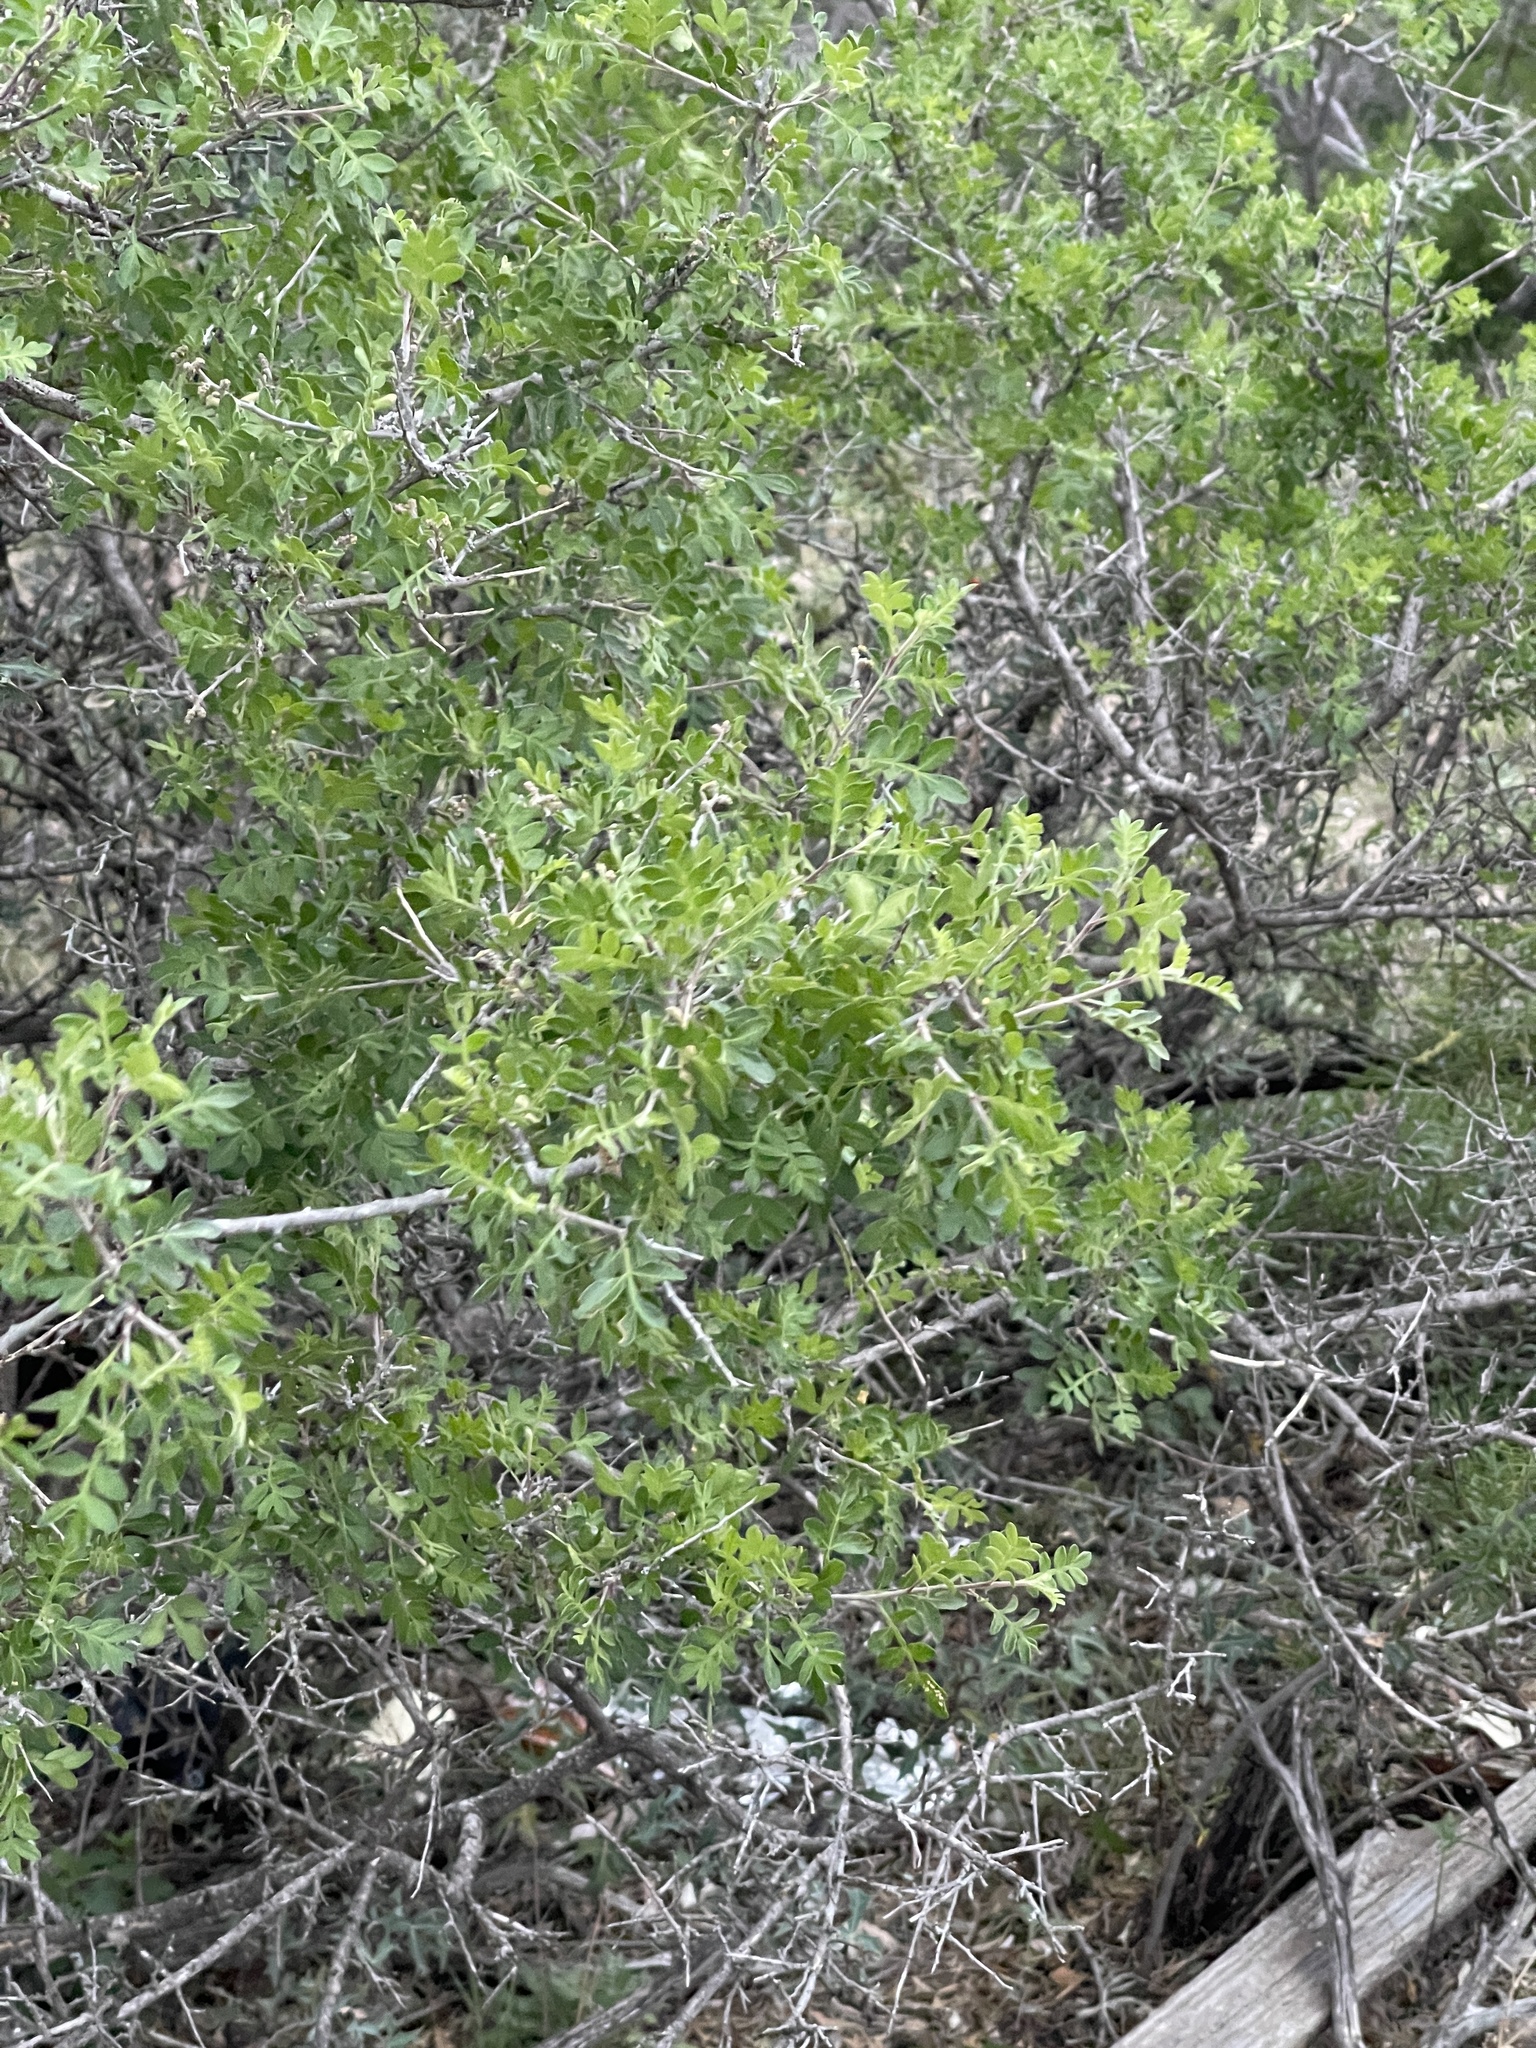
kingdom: Plantae
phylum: Tracheophyta
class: Magnoliopsida
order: Sapindales
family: Anacardiaceae
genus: Rhus
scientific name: Rhus microphylla
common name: Desert sumac
